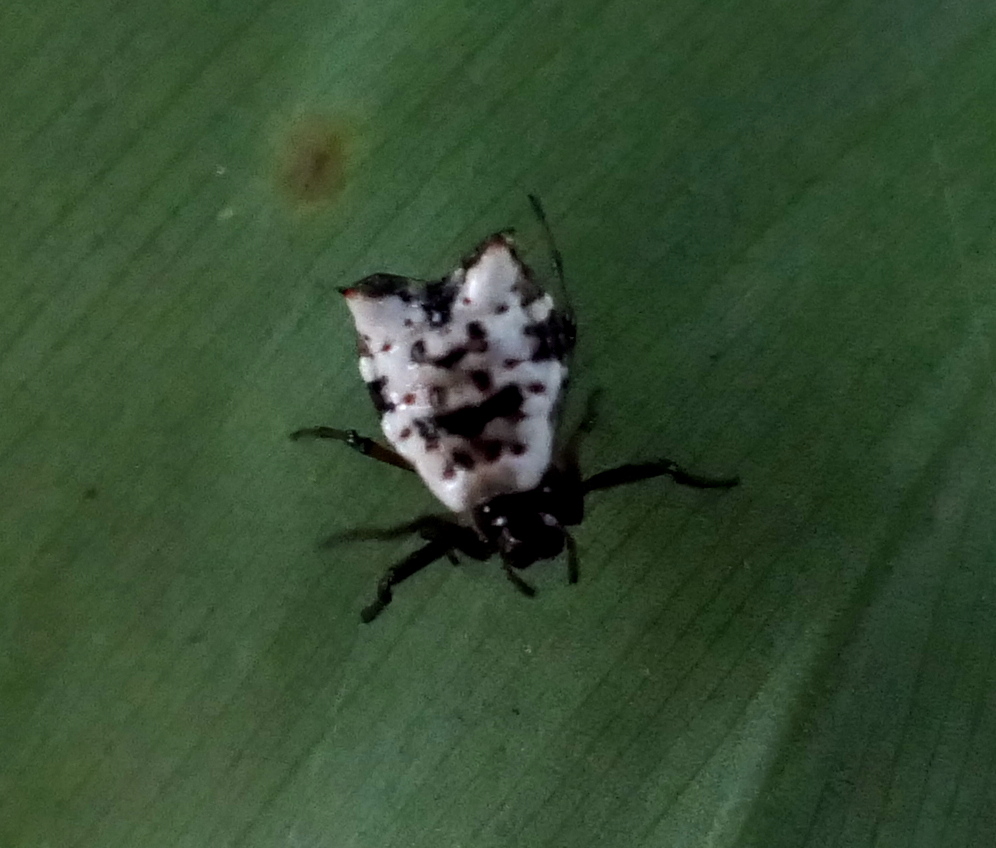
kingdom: Animalia
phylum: Arthropoda
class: Arachnida
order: Araneae
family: Araneidae
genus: Micrathena
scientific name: Micrathena patruelis
